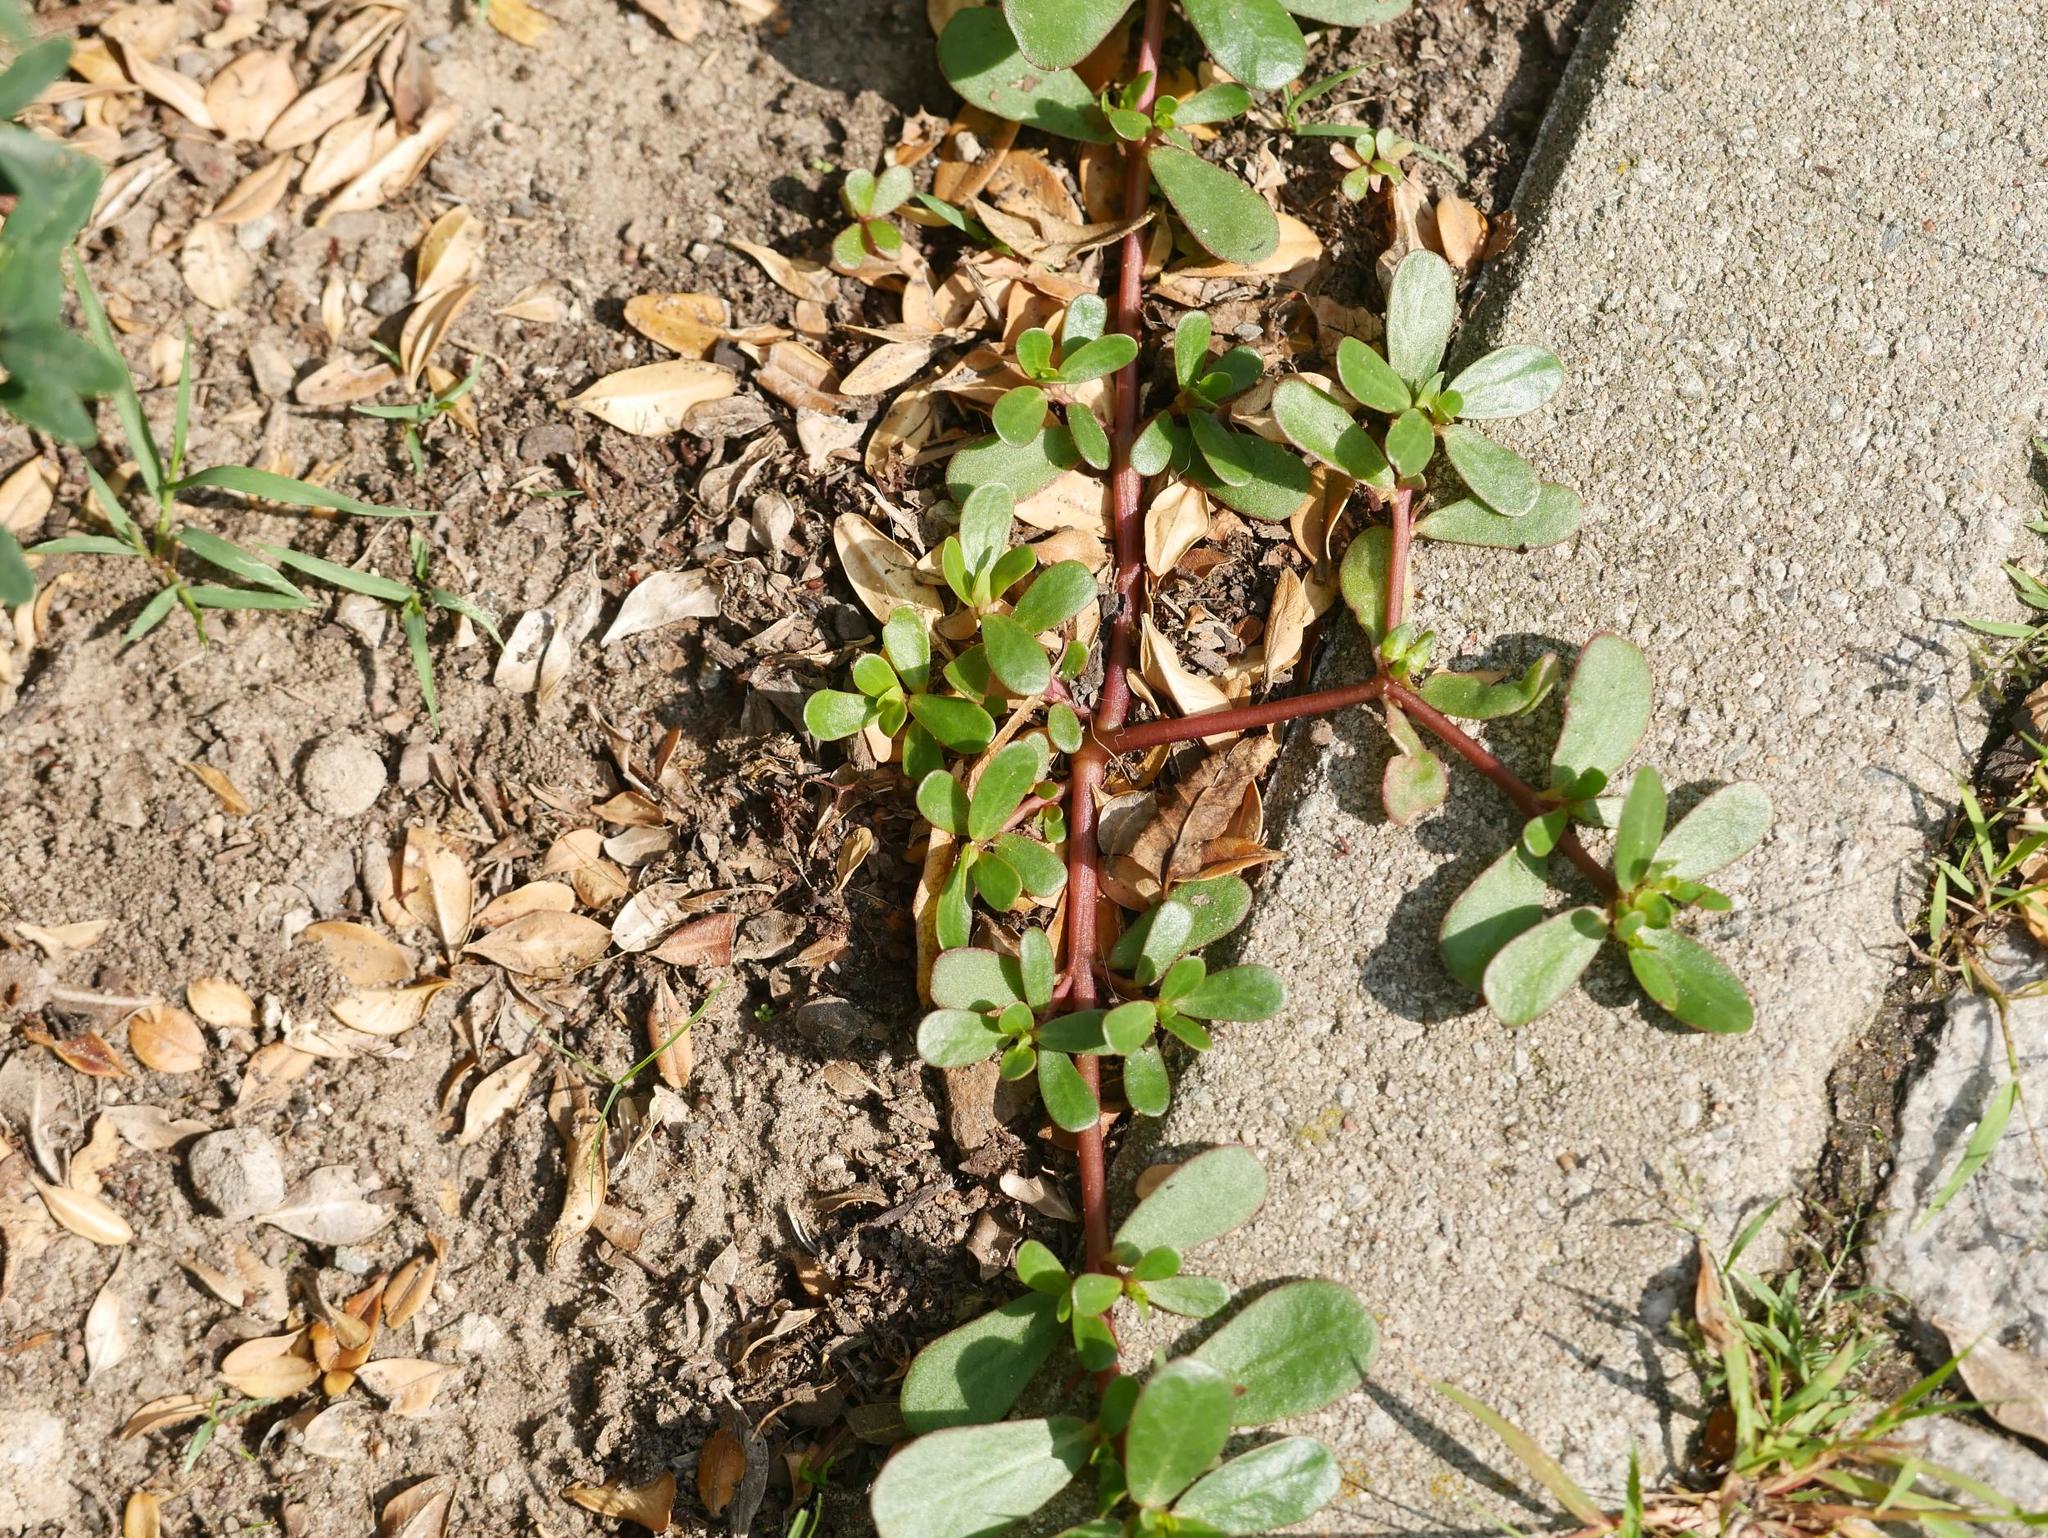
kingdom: Plantae
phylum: Tracheophyta
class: Magnoliopsida
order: Caryophyllales
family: Portulacaceae
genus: Portulaca
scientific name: Portulaca oleracea
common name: Common purslane
